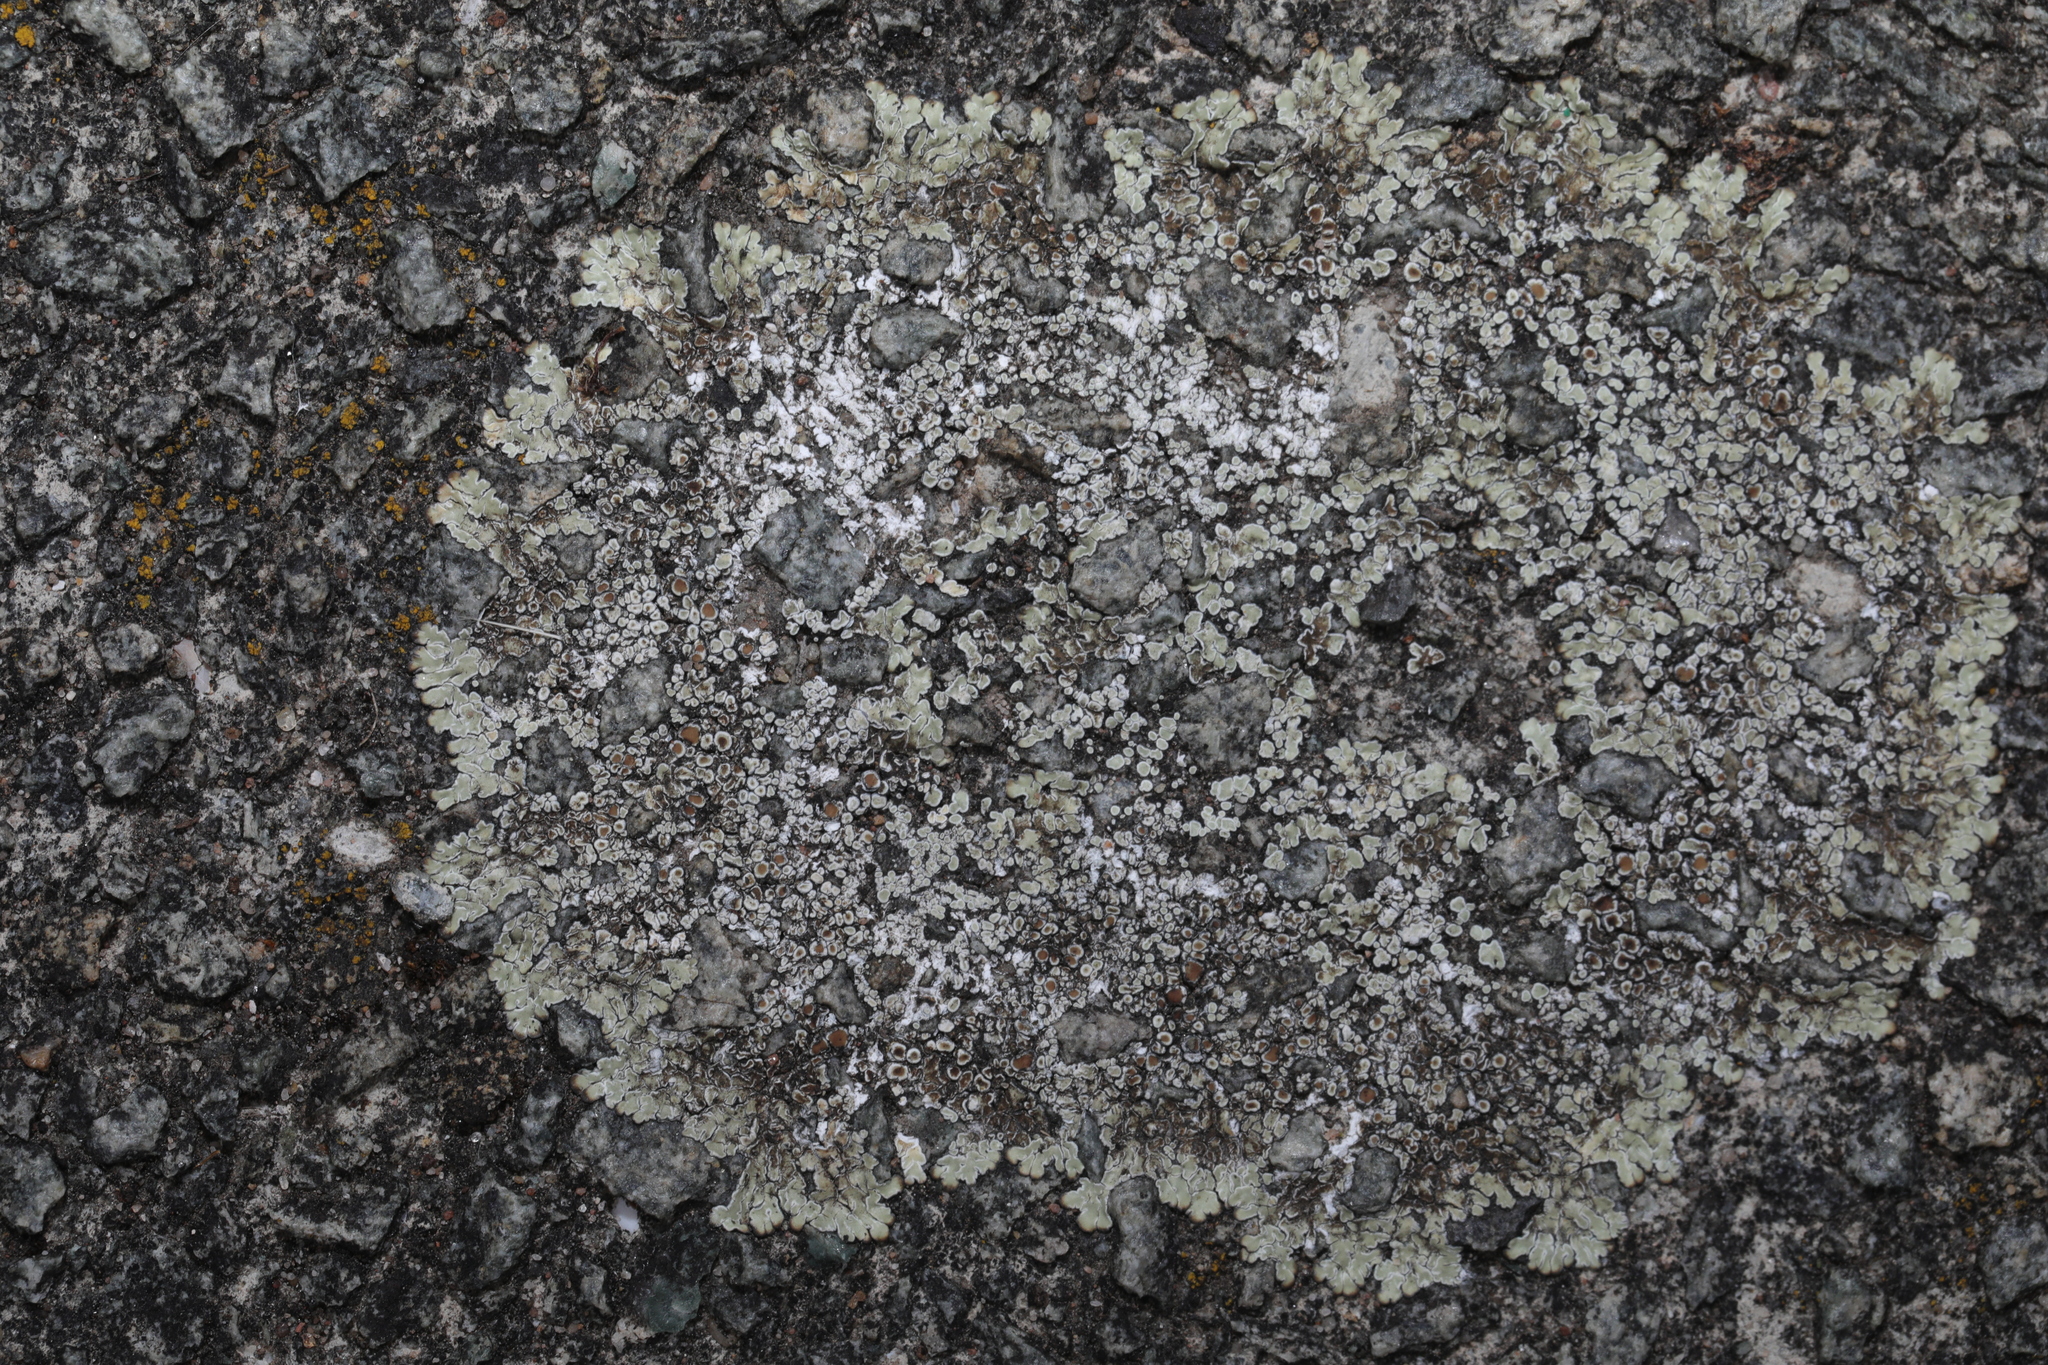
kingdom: Fungi
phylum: Ascomycota
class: Lecanoromycetes
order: Lecanorales
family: Lecanoraceae
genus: Protoparmeliopsis
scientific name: Protoparmeliopsis muralis
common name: Stonewall rim lichen
